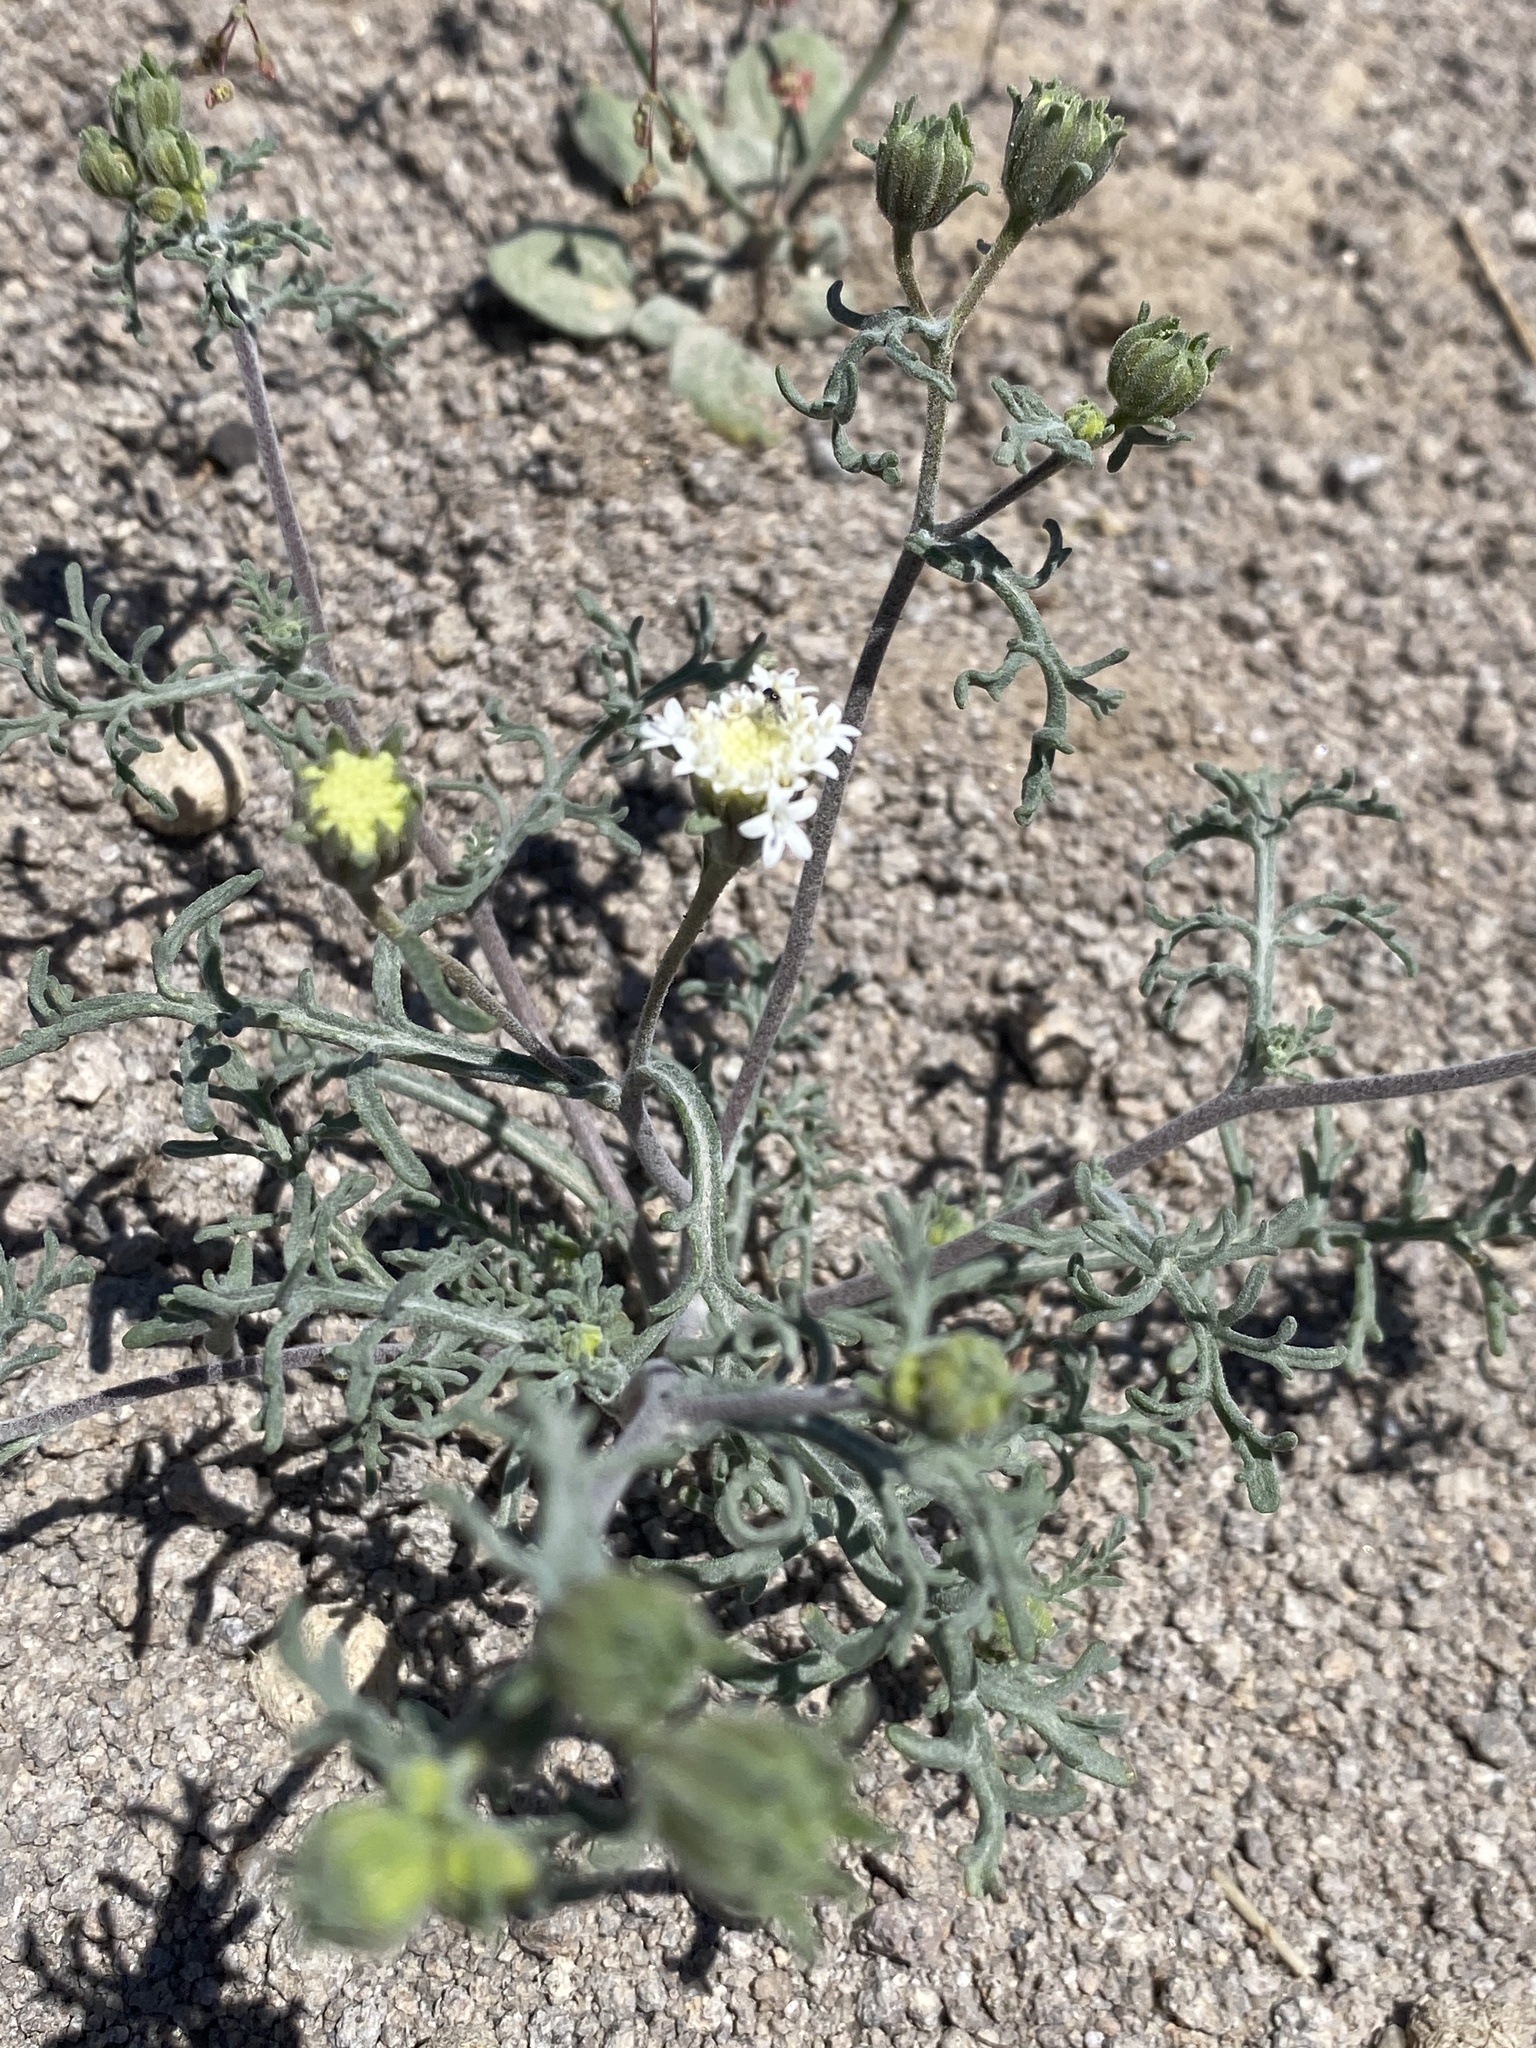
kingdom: Plantae
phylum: Tracheophyta
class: Magnoliopsida
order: Asterales
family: Asteraceae
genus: Chaenactis
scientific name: Chaenactis stevioides
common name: Desert pincushion
